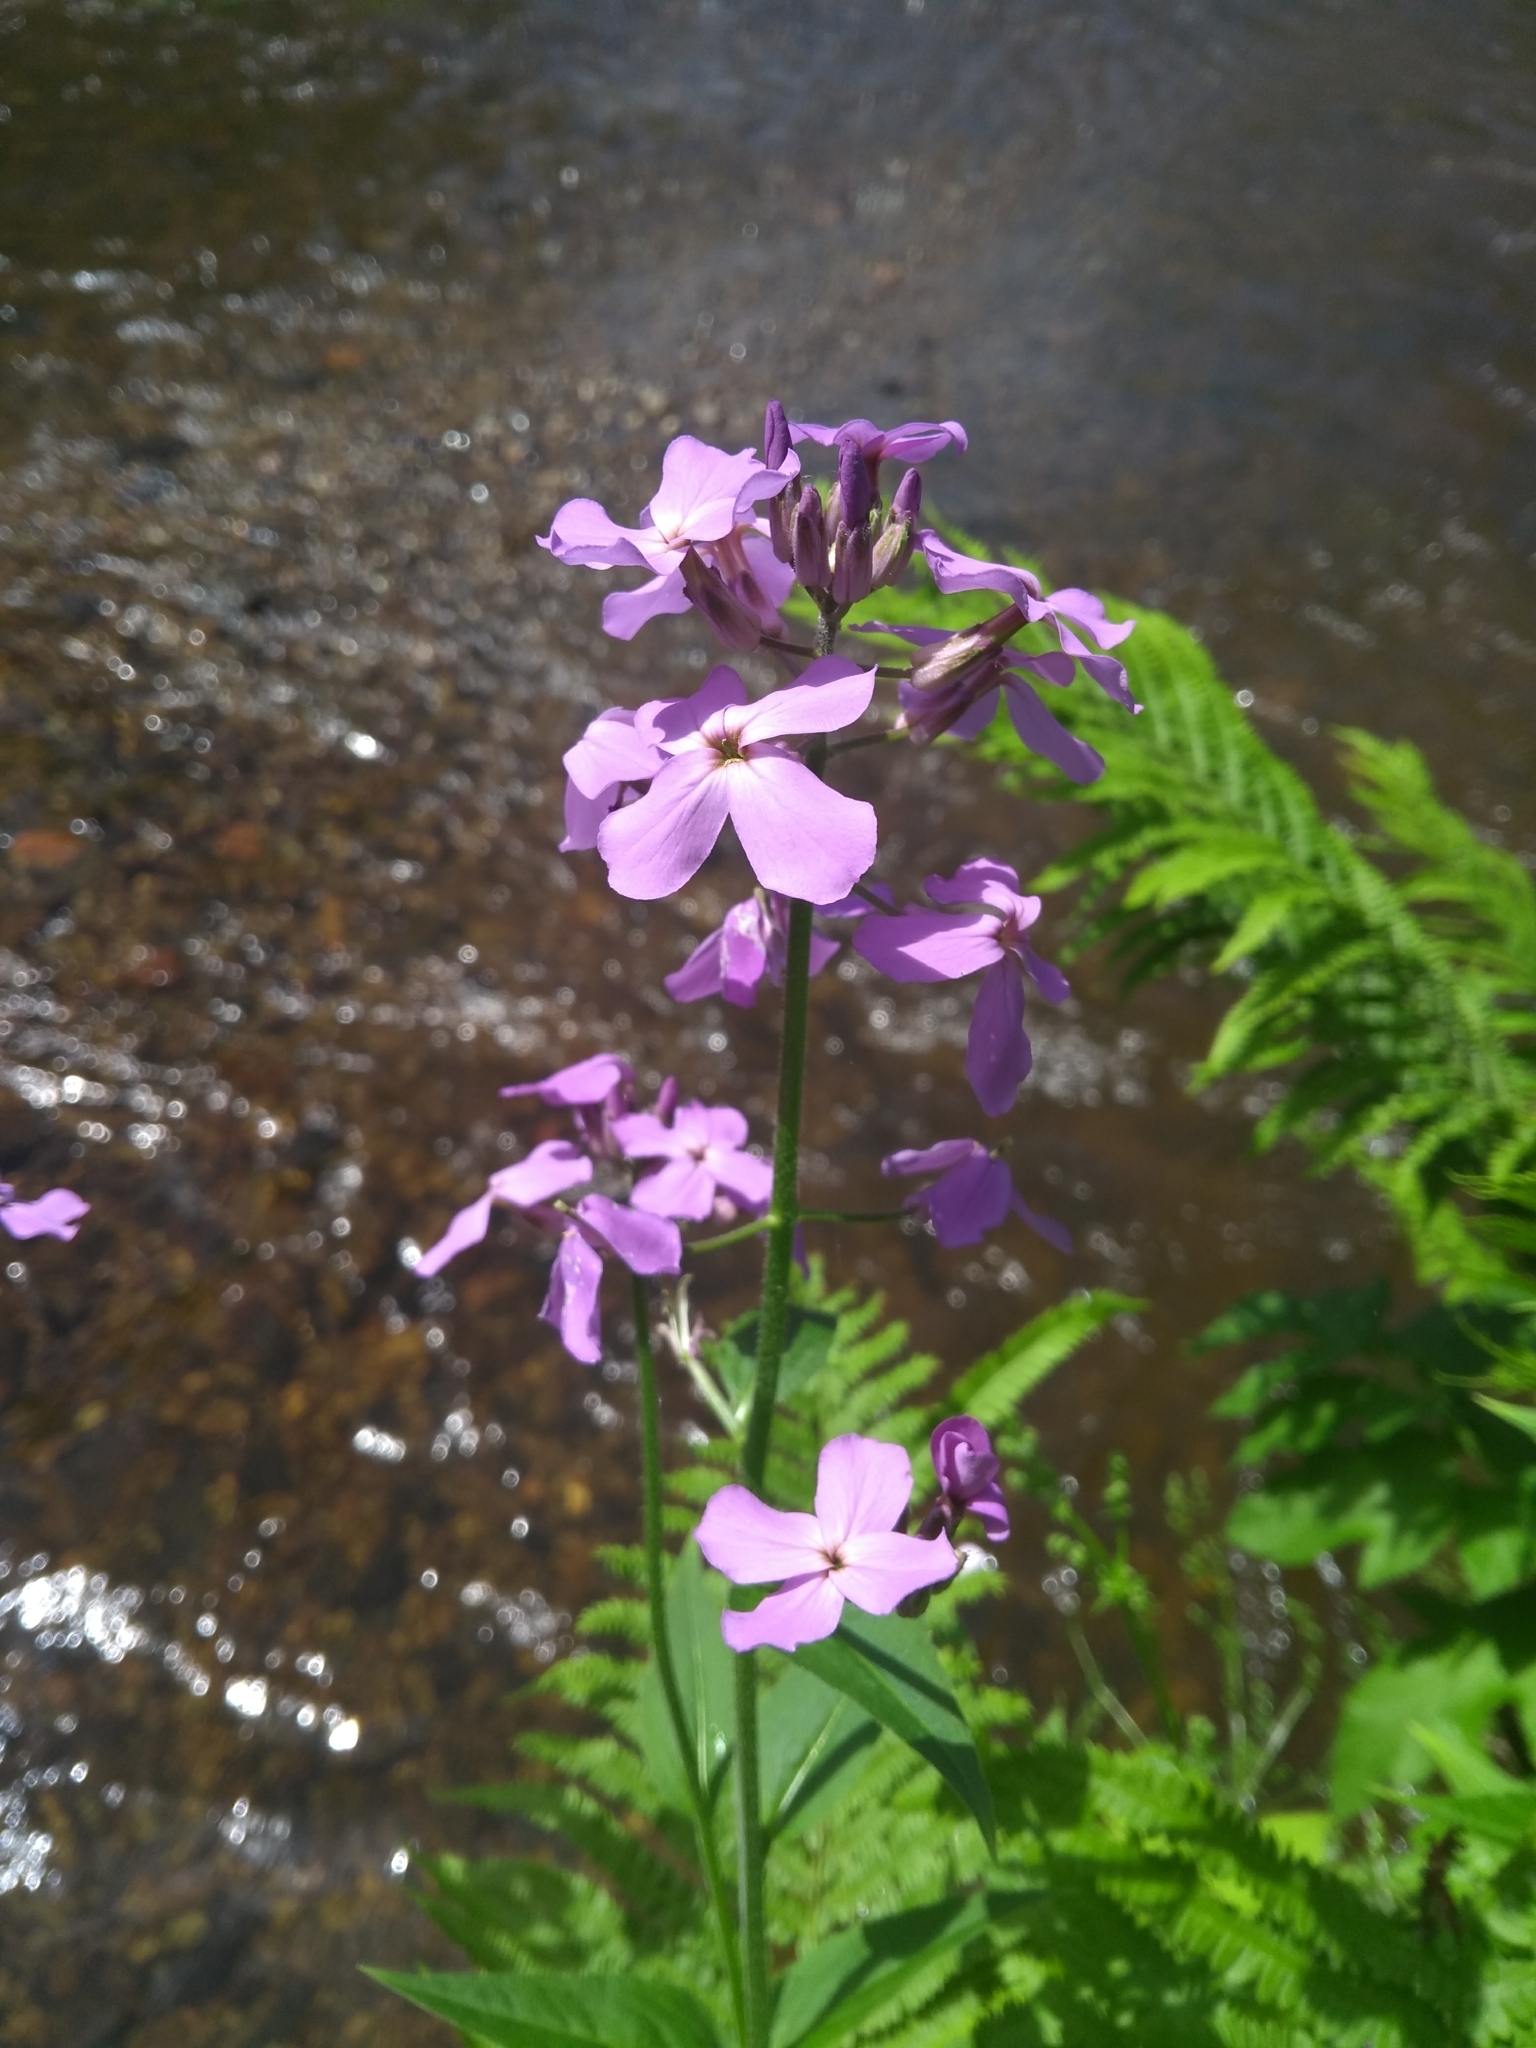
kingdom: Plantae
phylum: Tracheophyta
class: Magnoliopsida
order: Brassicales
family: Brassicaceae
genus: Hesperis
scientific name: Hesperis matronalis
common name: Dame's-violet
